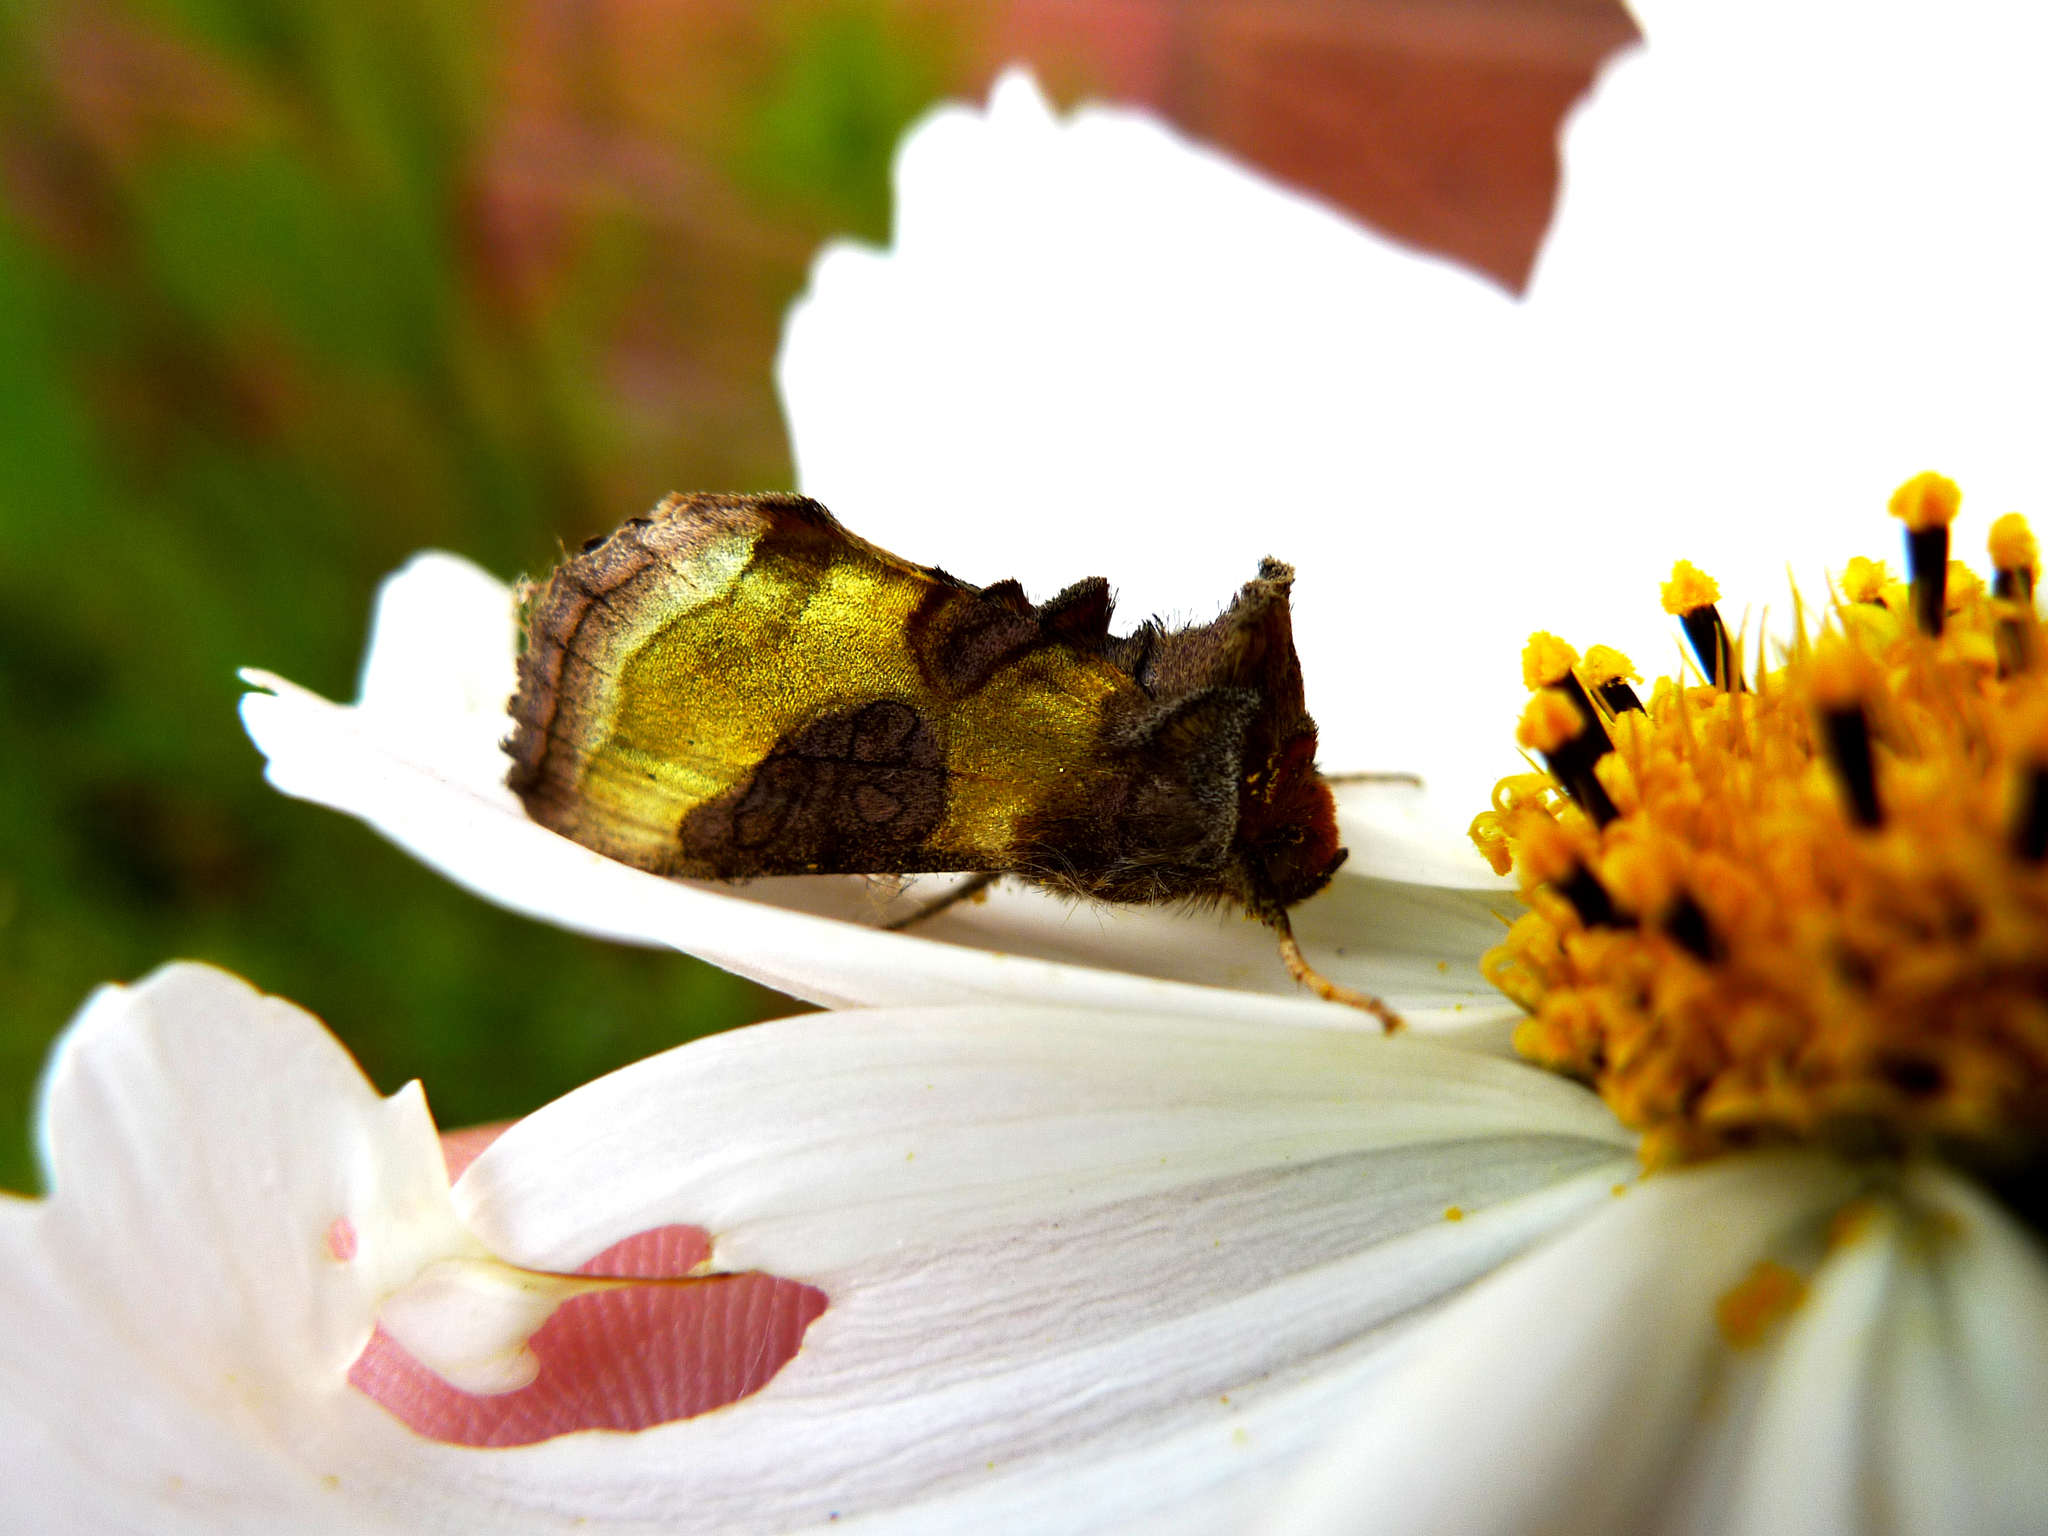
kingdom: Animalia
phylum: Arthropoda
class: Insecta
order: Lepidoptera
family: Noctuidae
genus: Diachrysia
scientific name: Diachrysia chrysitis
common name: Burnished brass
